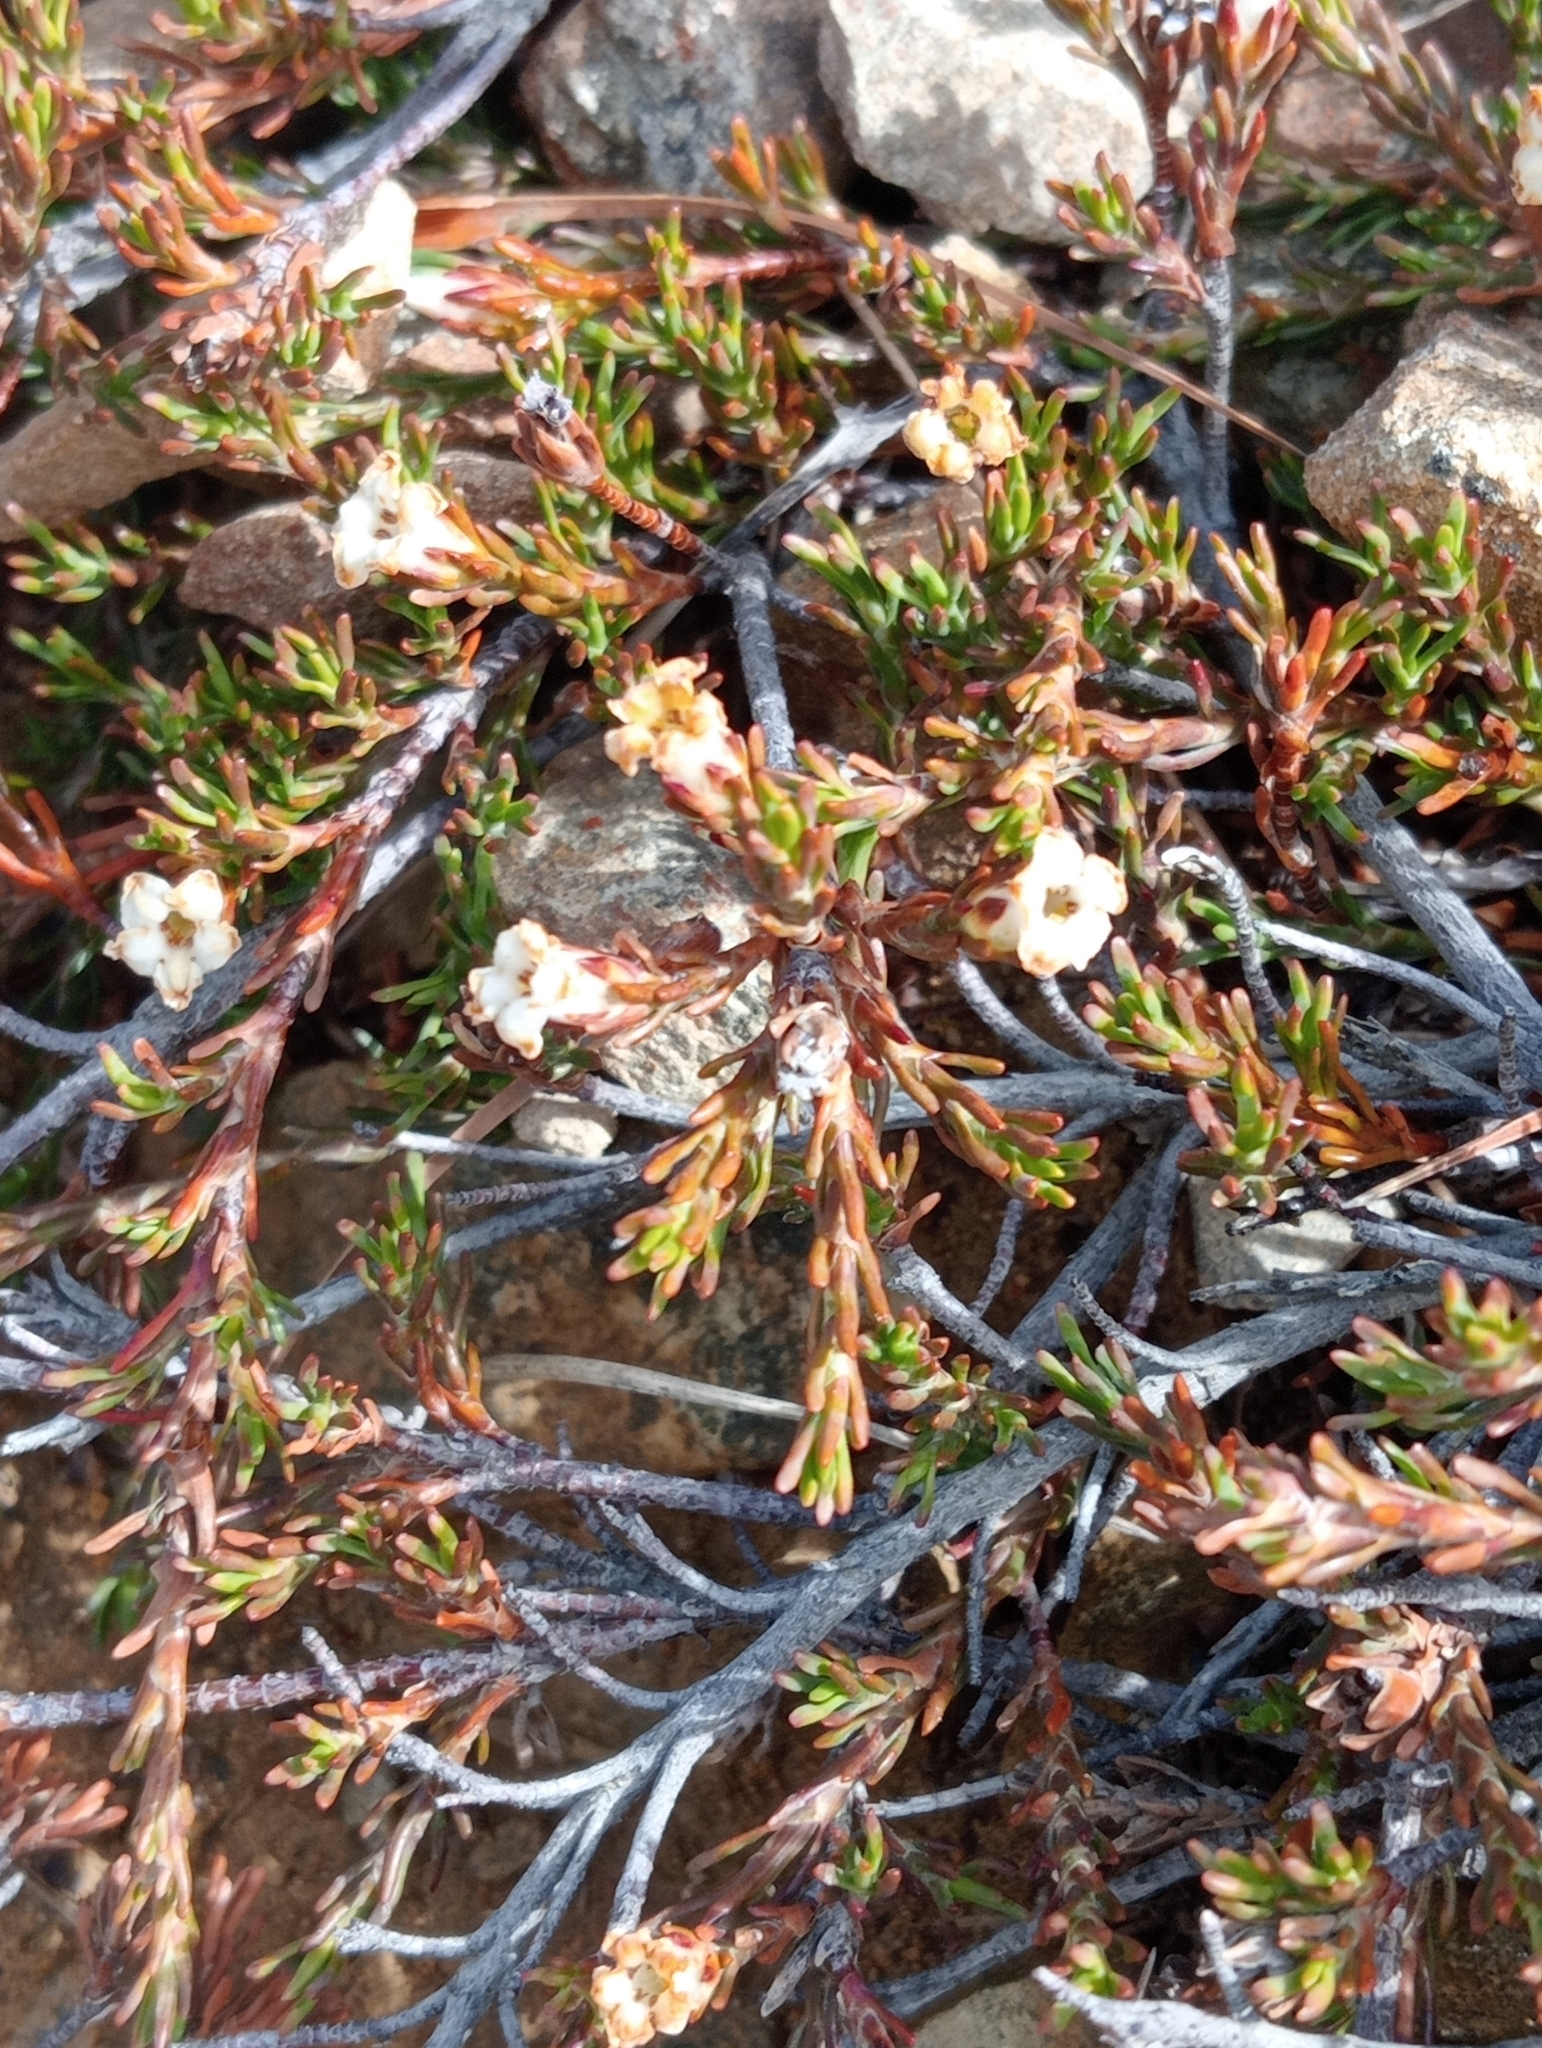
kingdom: Plantae
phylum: Tracheophyta
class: Magnoliopsida
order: Ericales
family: Ericaceae
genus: Dracophyllum
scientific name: Dracophyllum pronum
